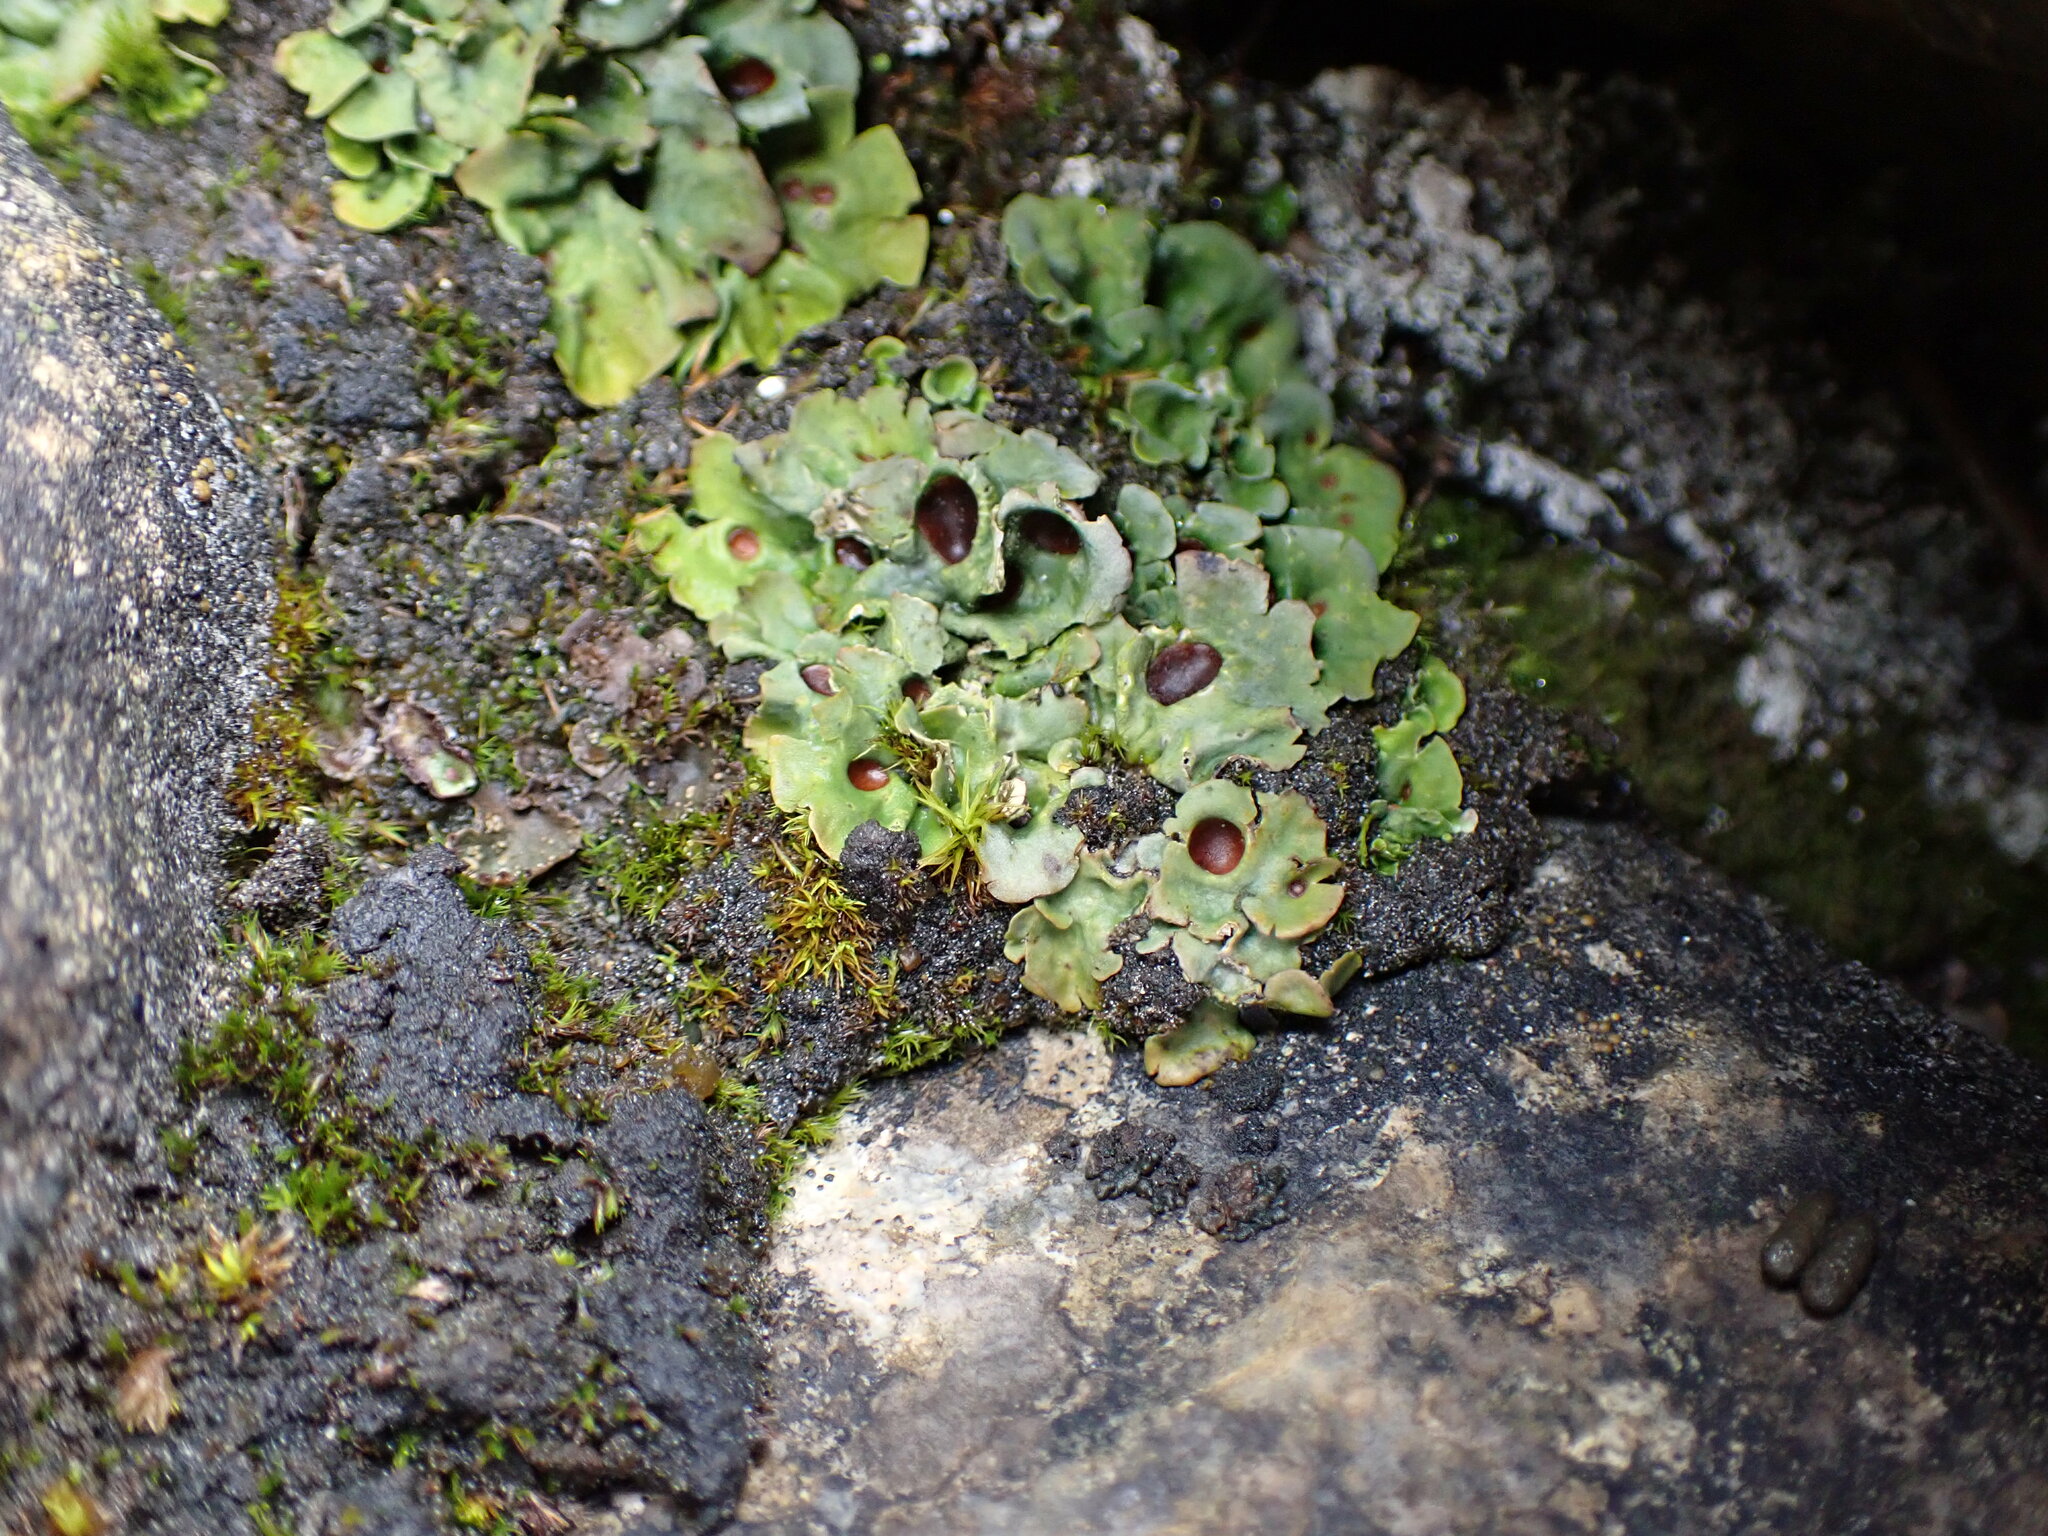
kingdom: Fungi
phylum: Ascomycota
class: Lecanoromycetes
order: Peltigerales
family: Peltigeraceae
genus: Solorina
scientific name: Solorina saccata
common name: Common chocolate chip lichen
